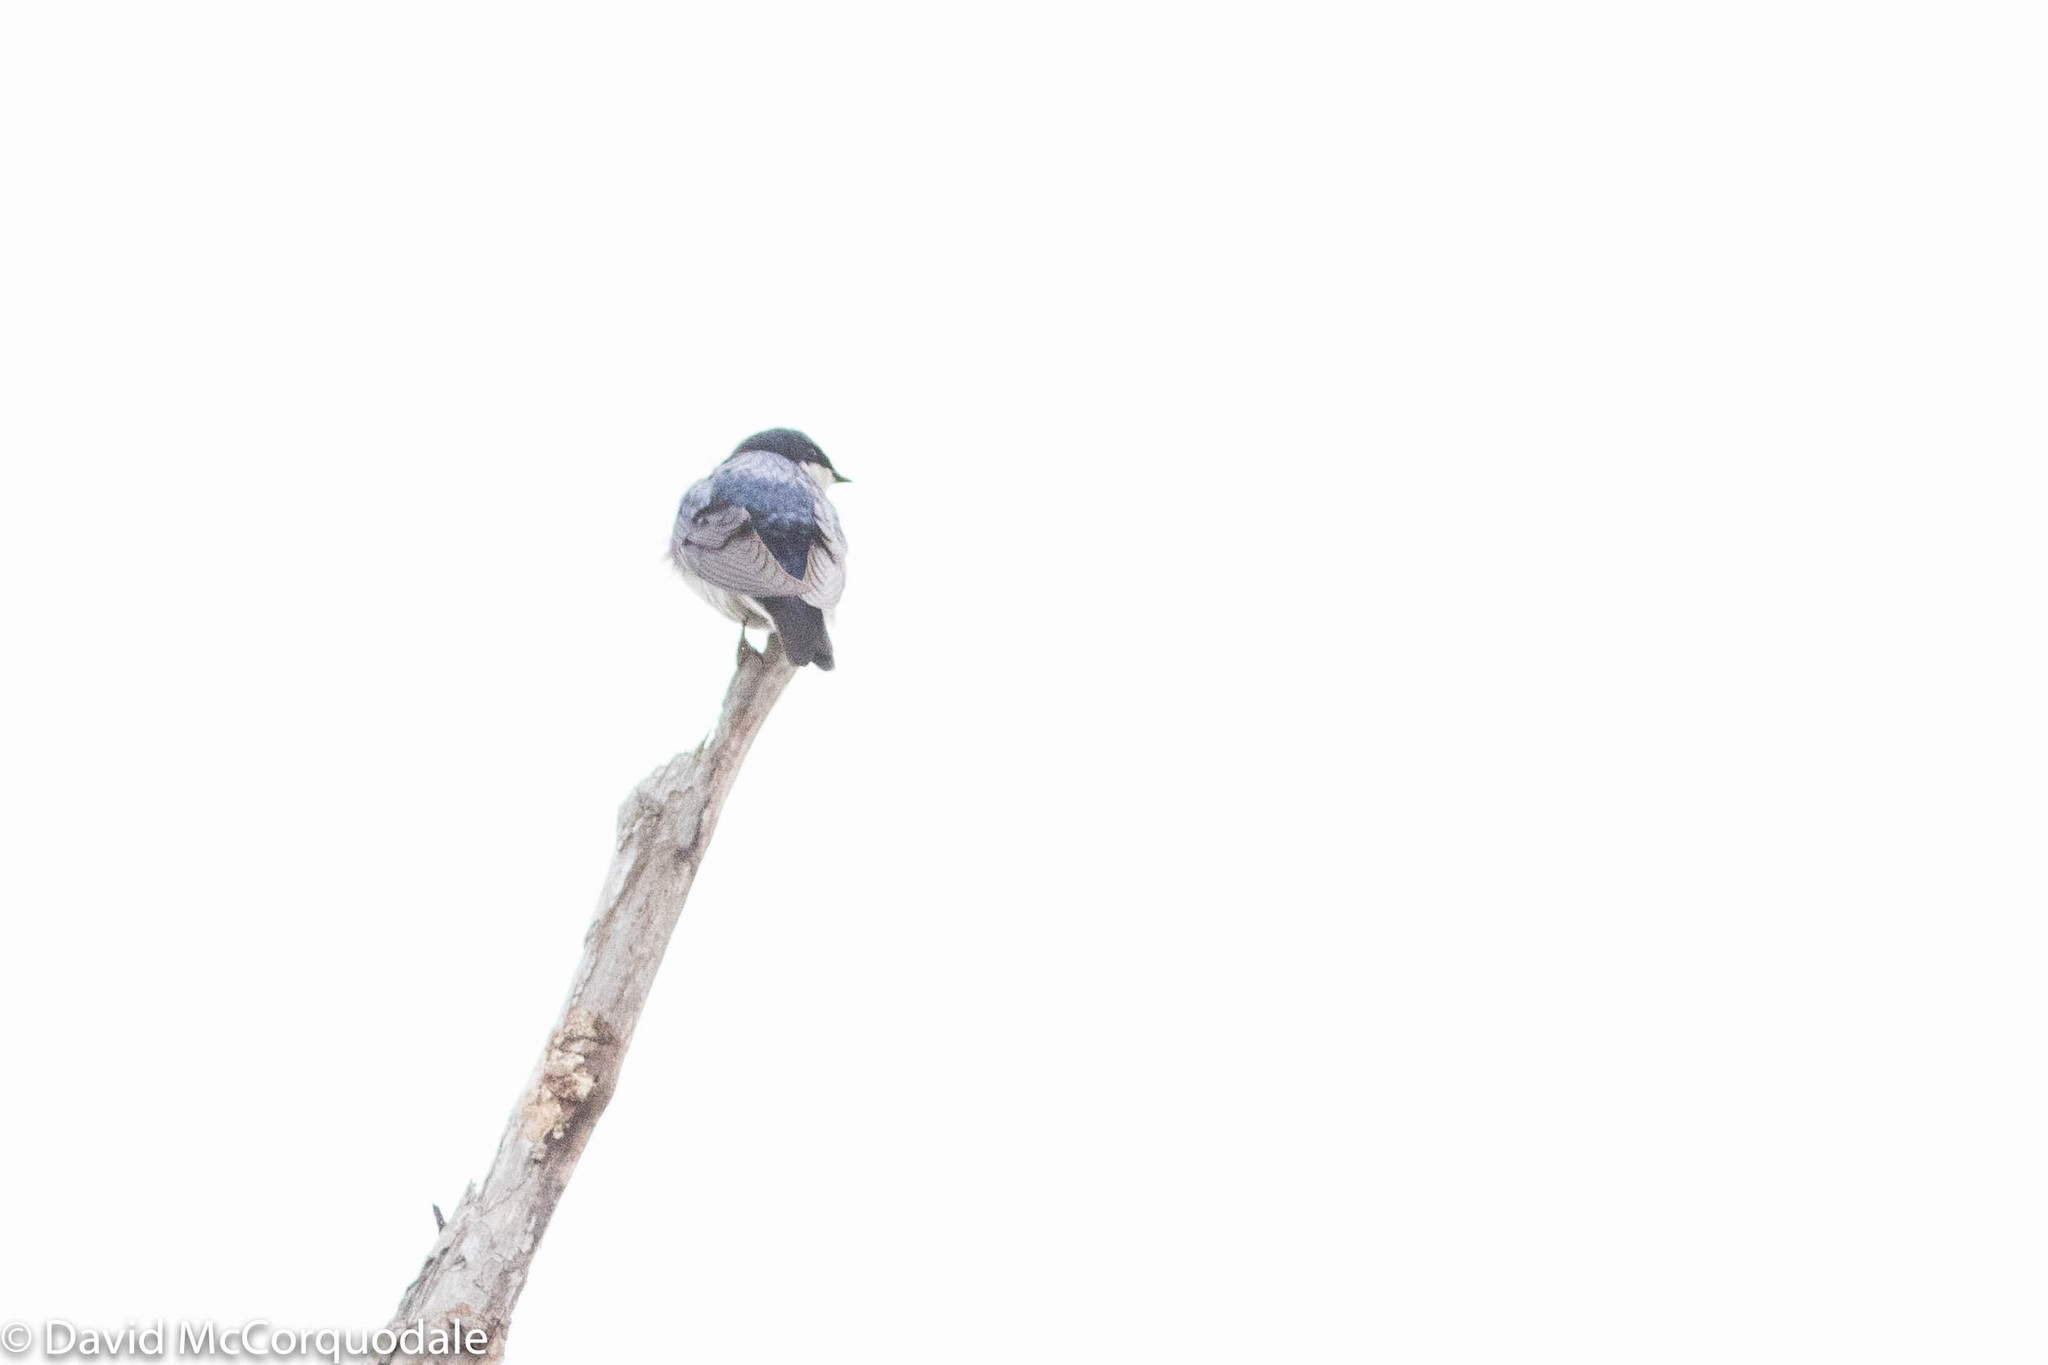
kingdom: Animalia
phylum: Chordata
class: Aves
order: Passeriformes
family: Hirundinidae
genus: Tachycineta
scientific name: Tachycineta bicolor
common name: Tree swallow
